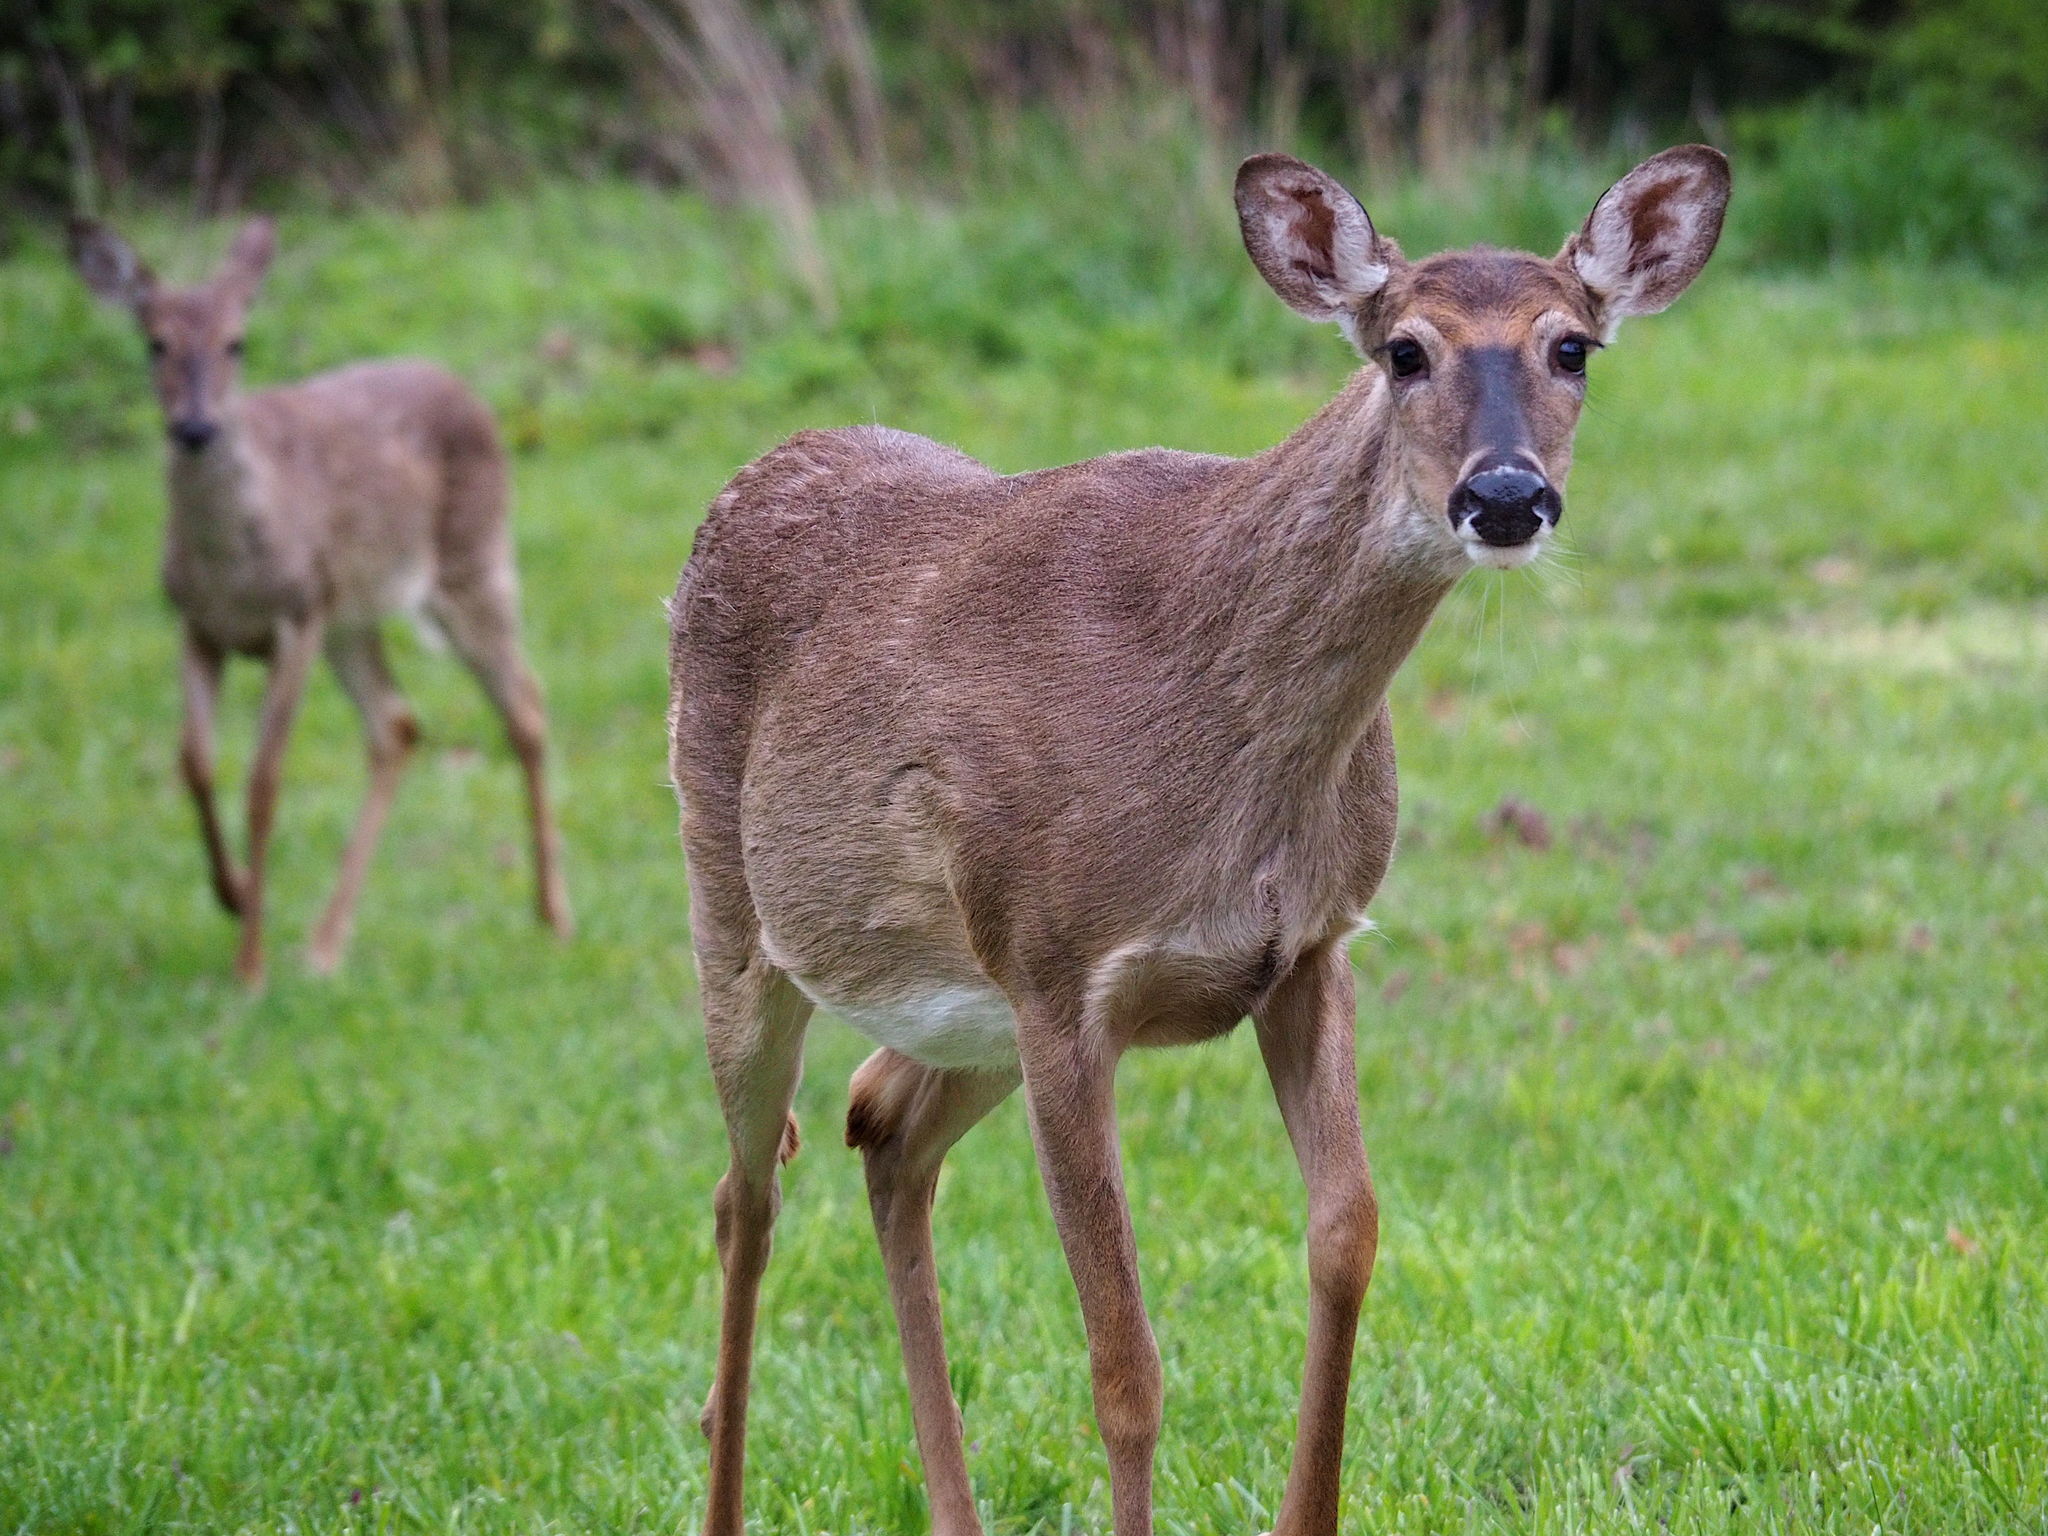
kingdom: Animalia
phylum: Chordata
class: Mammalia
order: Artiodactyla
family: Cervidae
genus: Odocoileus
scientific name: Odocoileus virginianus
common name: White-tailed deer
